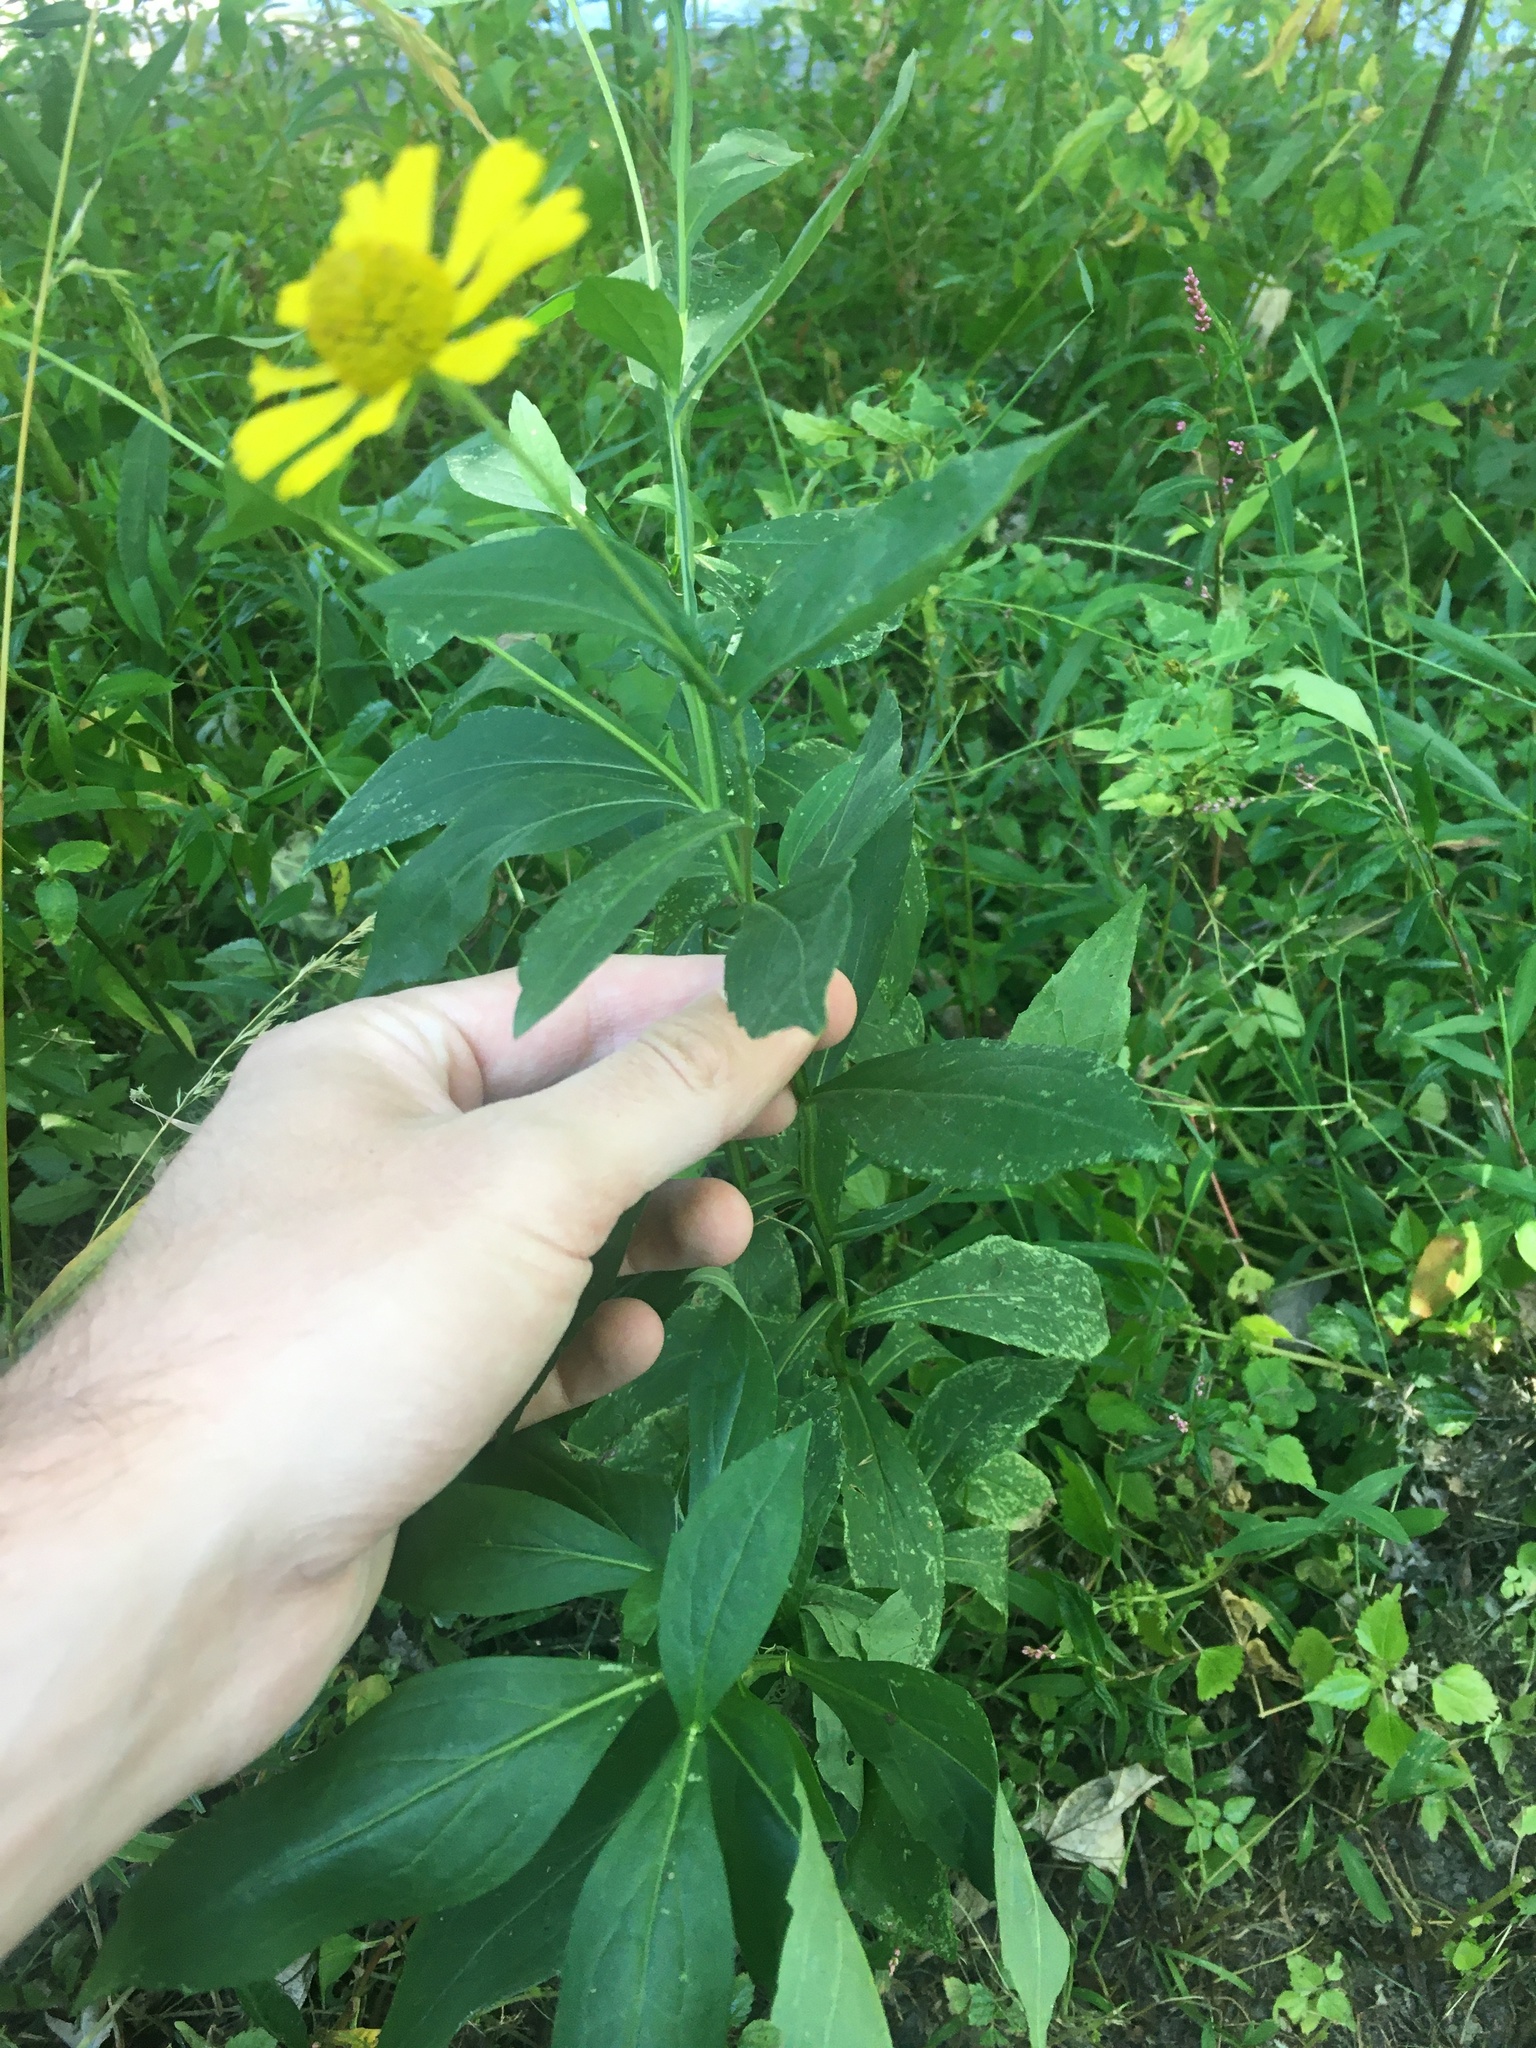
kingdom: Plantae
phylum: Tracheophyta
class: Magnoliopsida
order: Asterales
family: Asteraceae
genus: Helenium
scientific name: Helenium autumnale
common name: Sneezeweed
